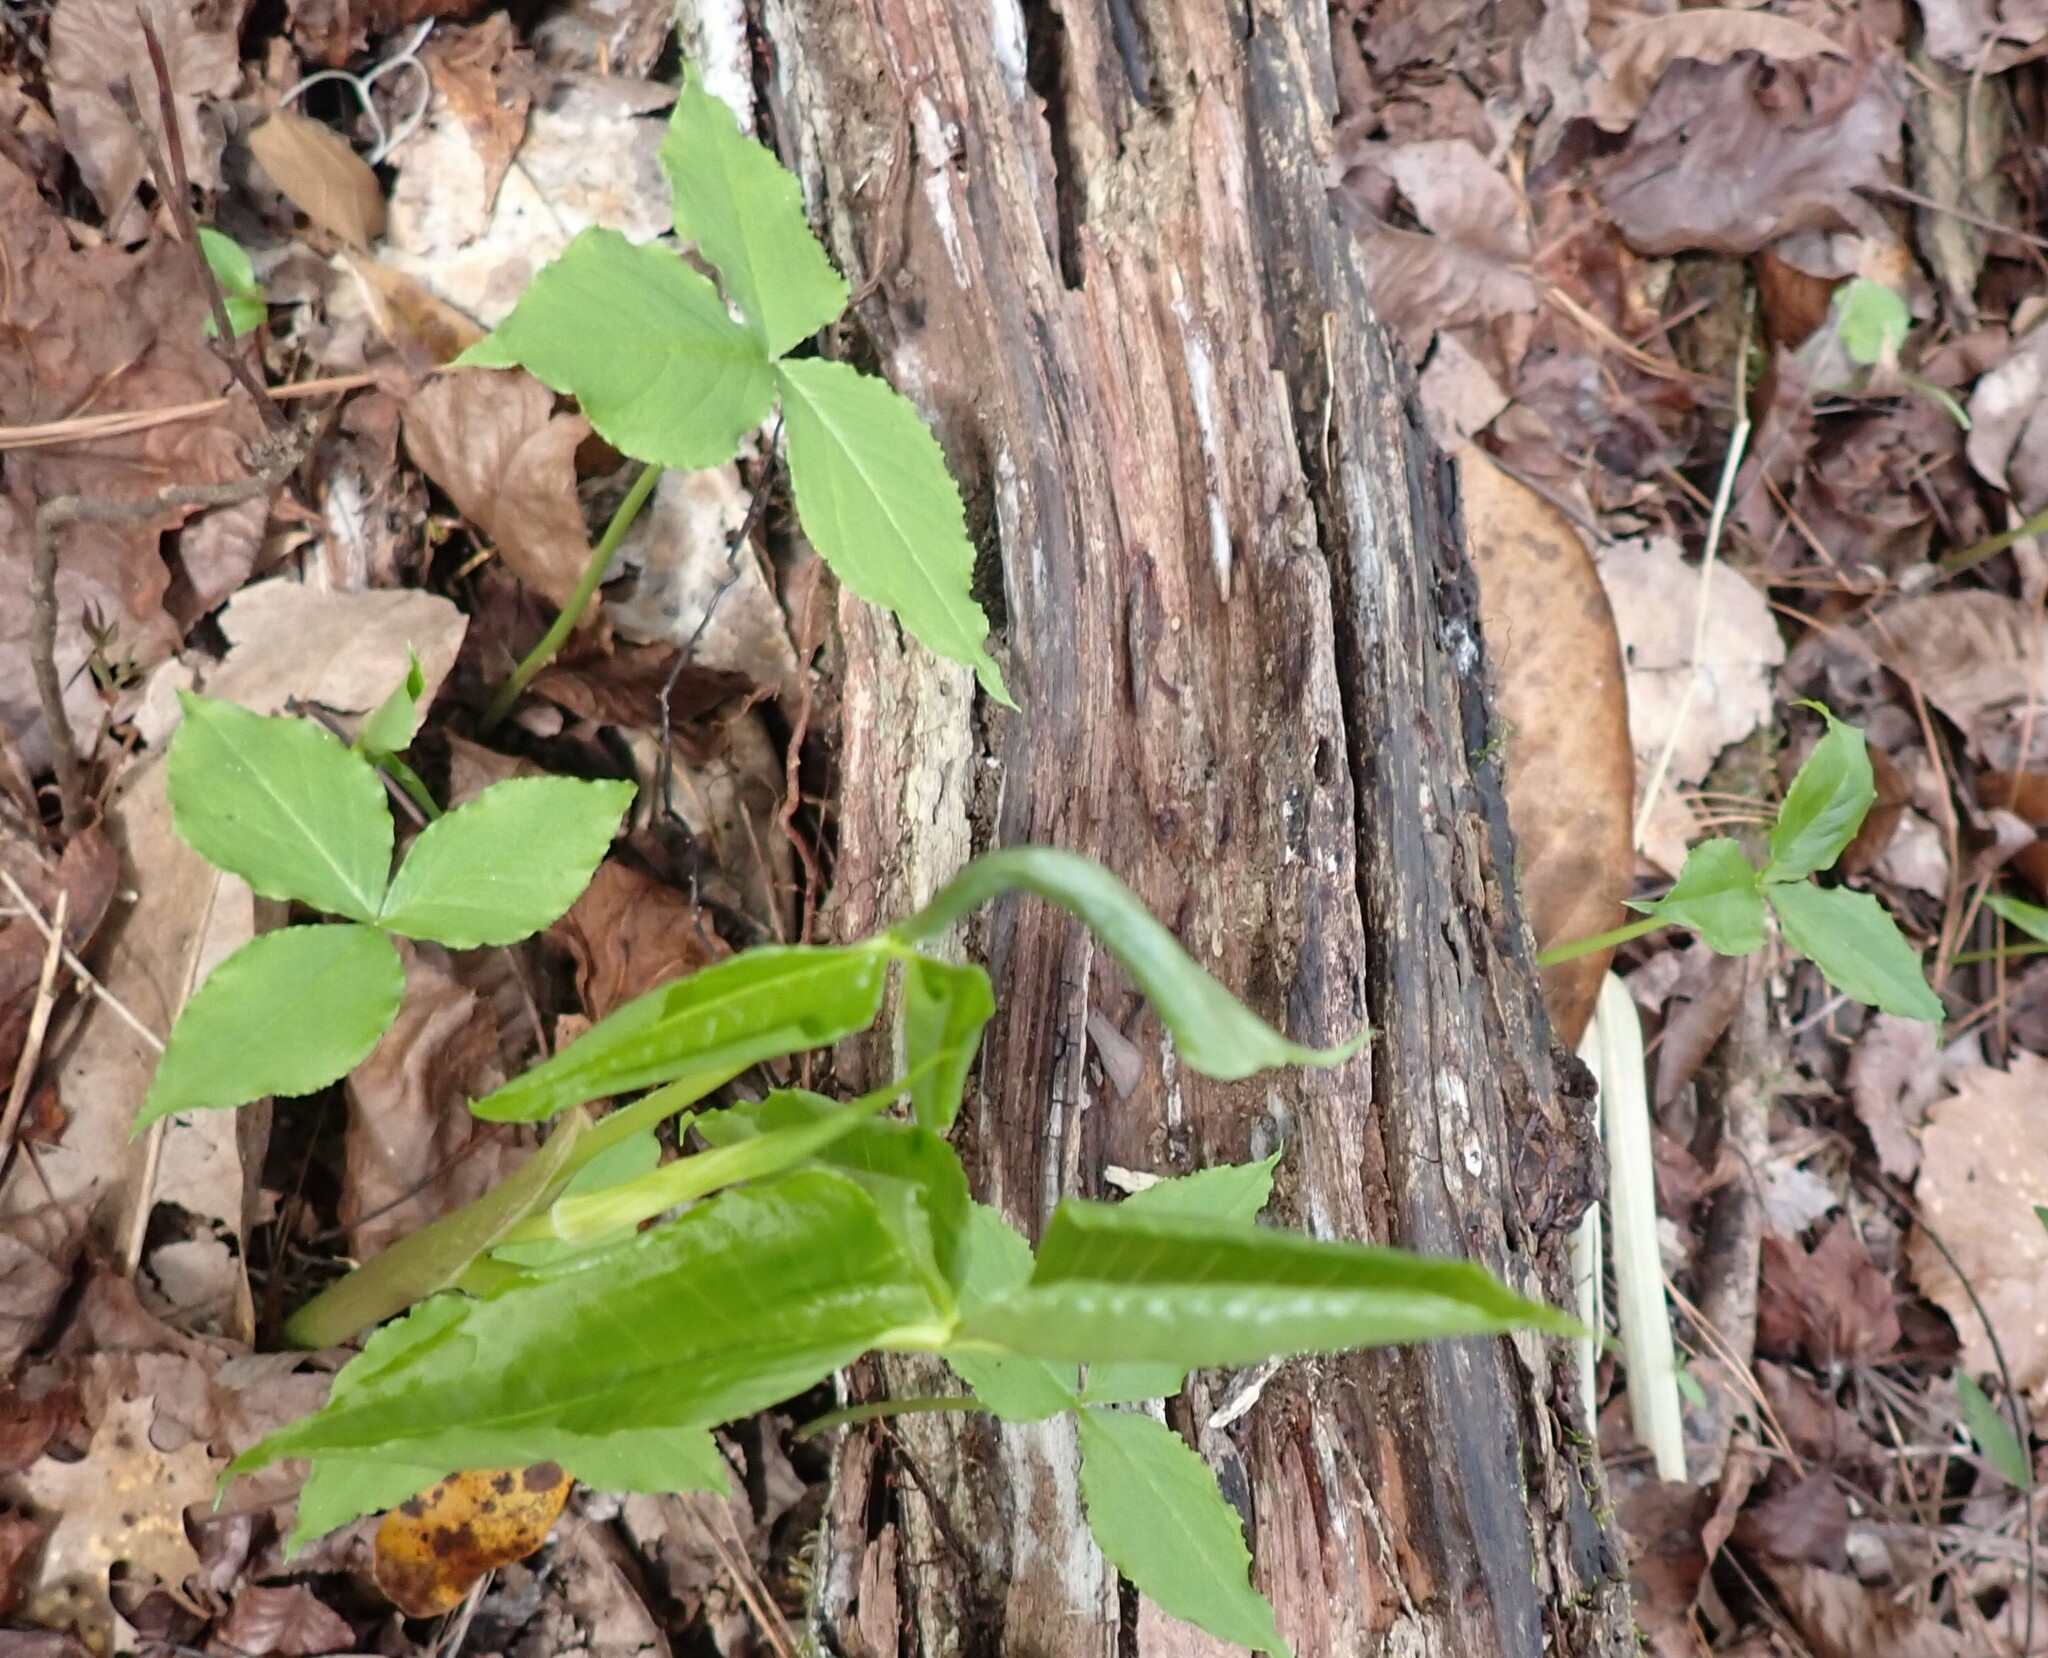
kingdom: Plantae
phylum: Tracheophyta
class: Liliopsida
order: Alismatales
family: Araceae
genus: Arisaema
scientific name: Arisaema acuminatum
